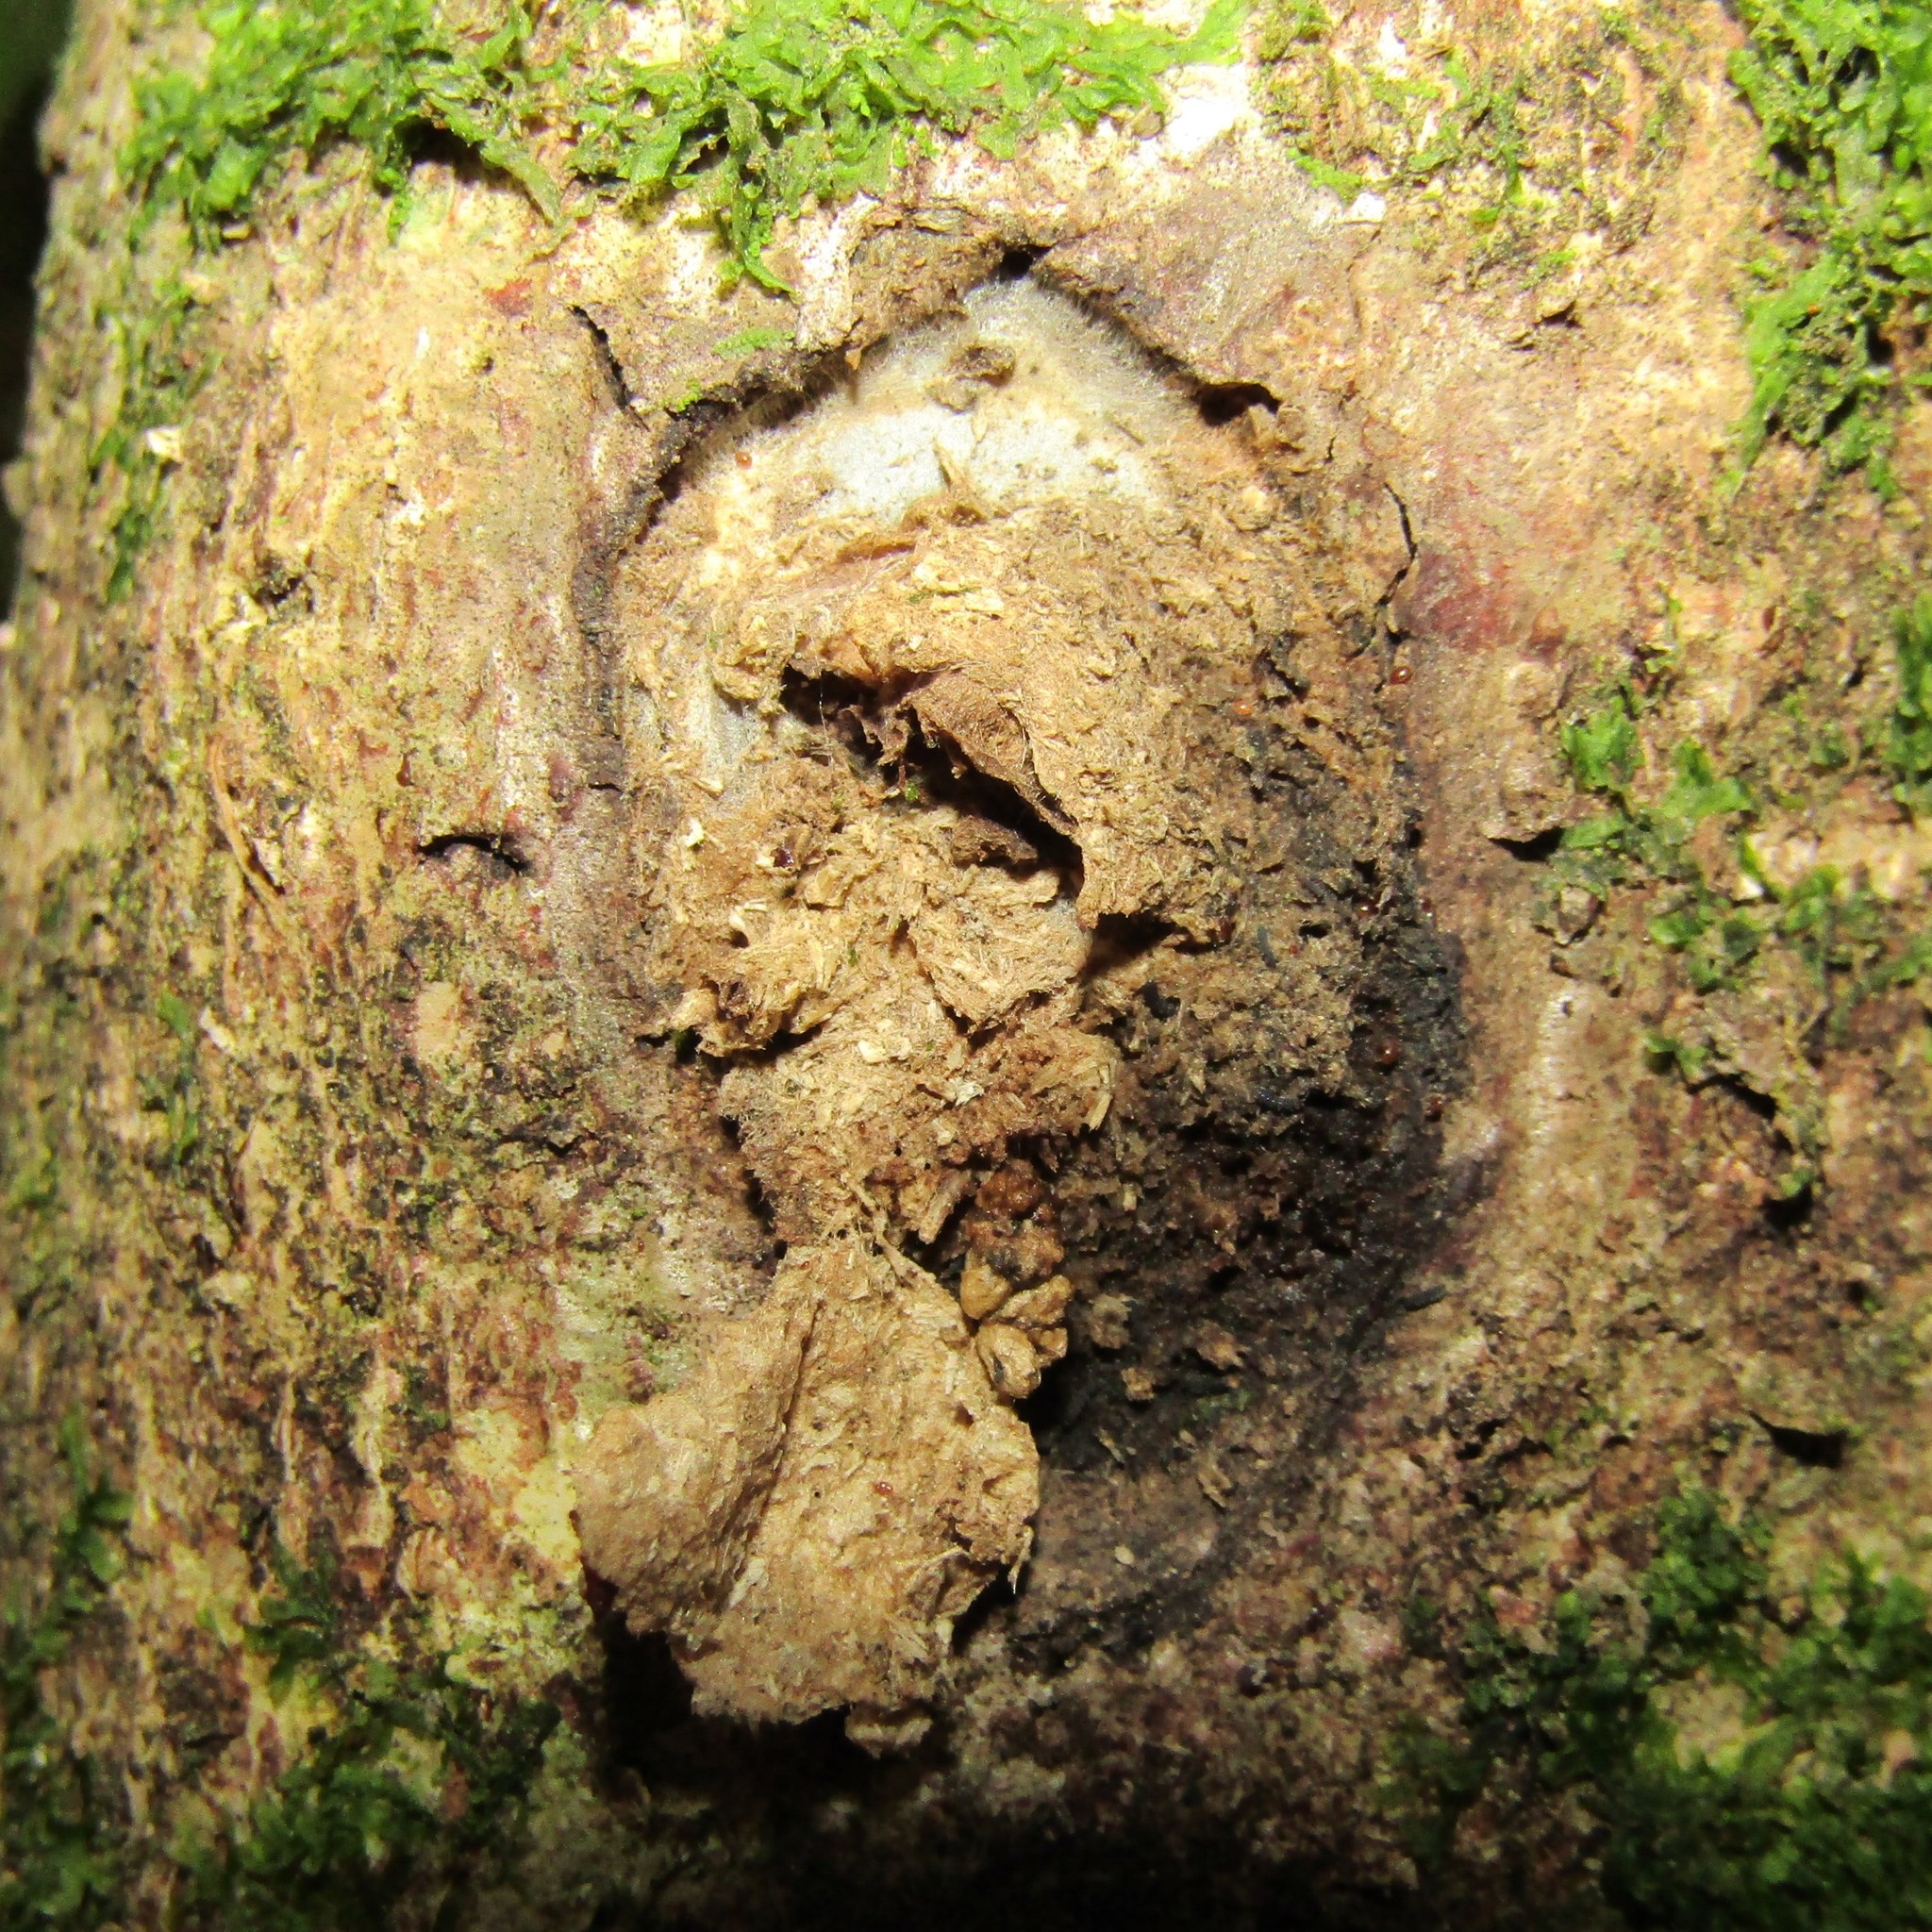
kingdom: Animalia
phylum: Arthropoda
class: Insecta
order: Lepidoptera
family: Hepialidae
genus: Aenetus
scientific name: Aenetus virescens
